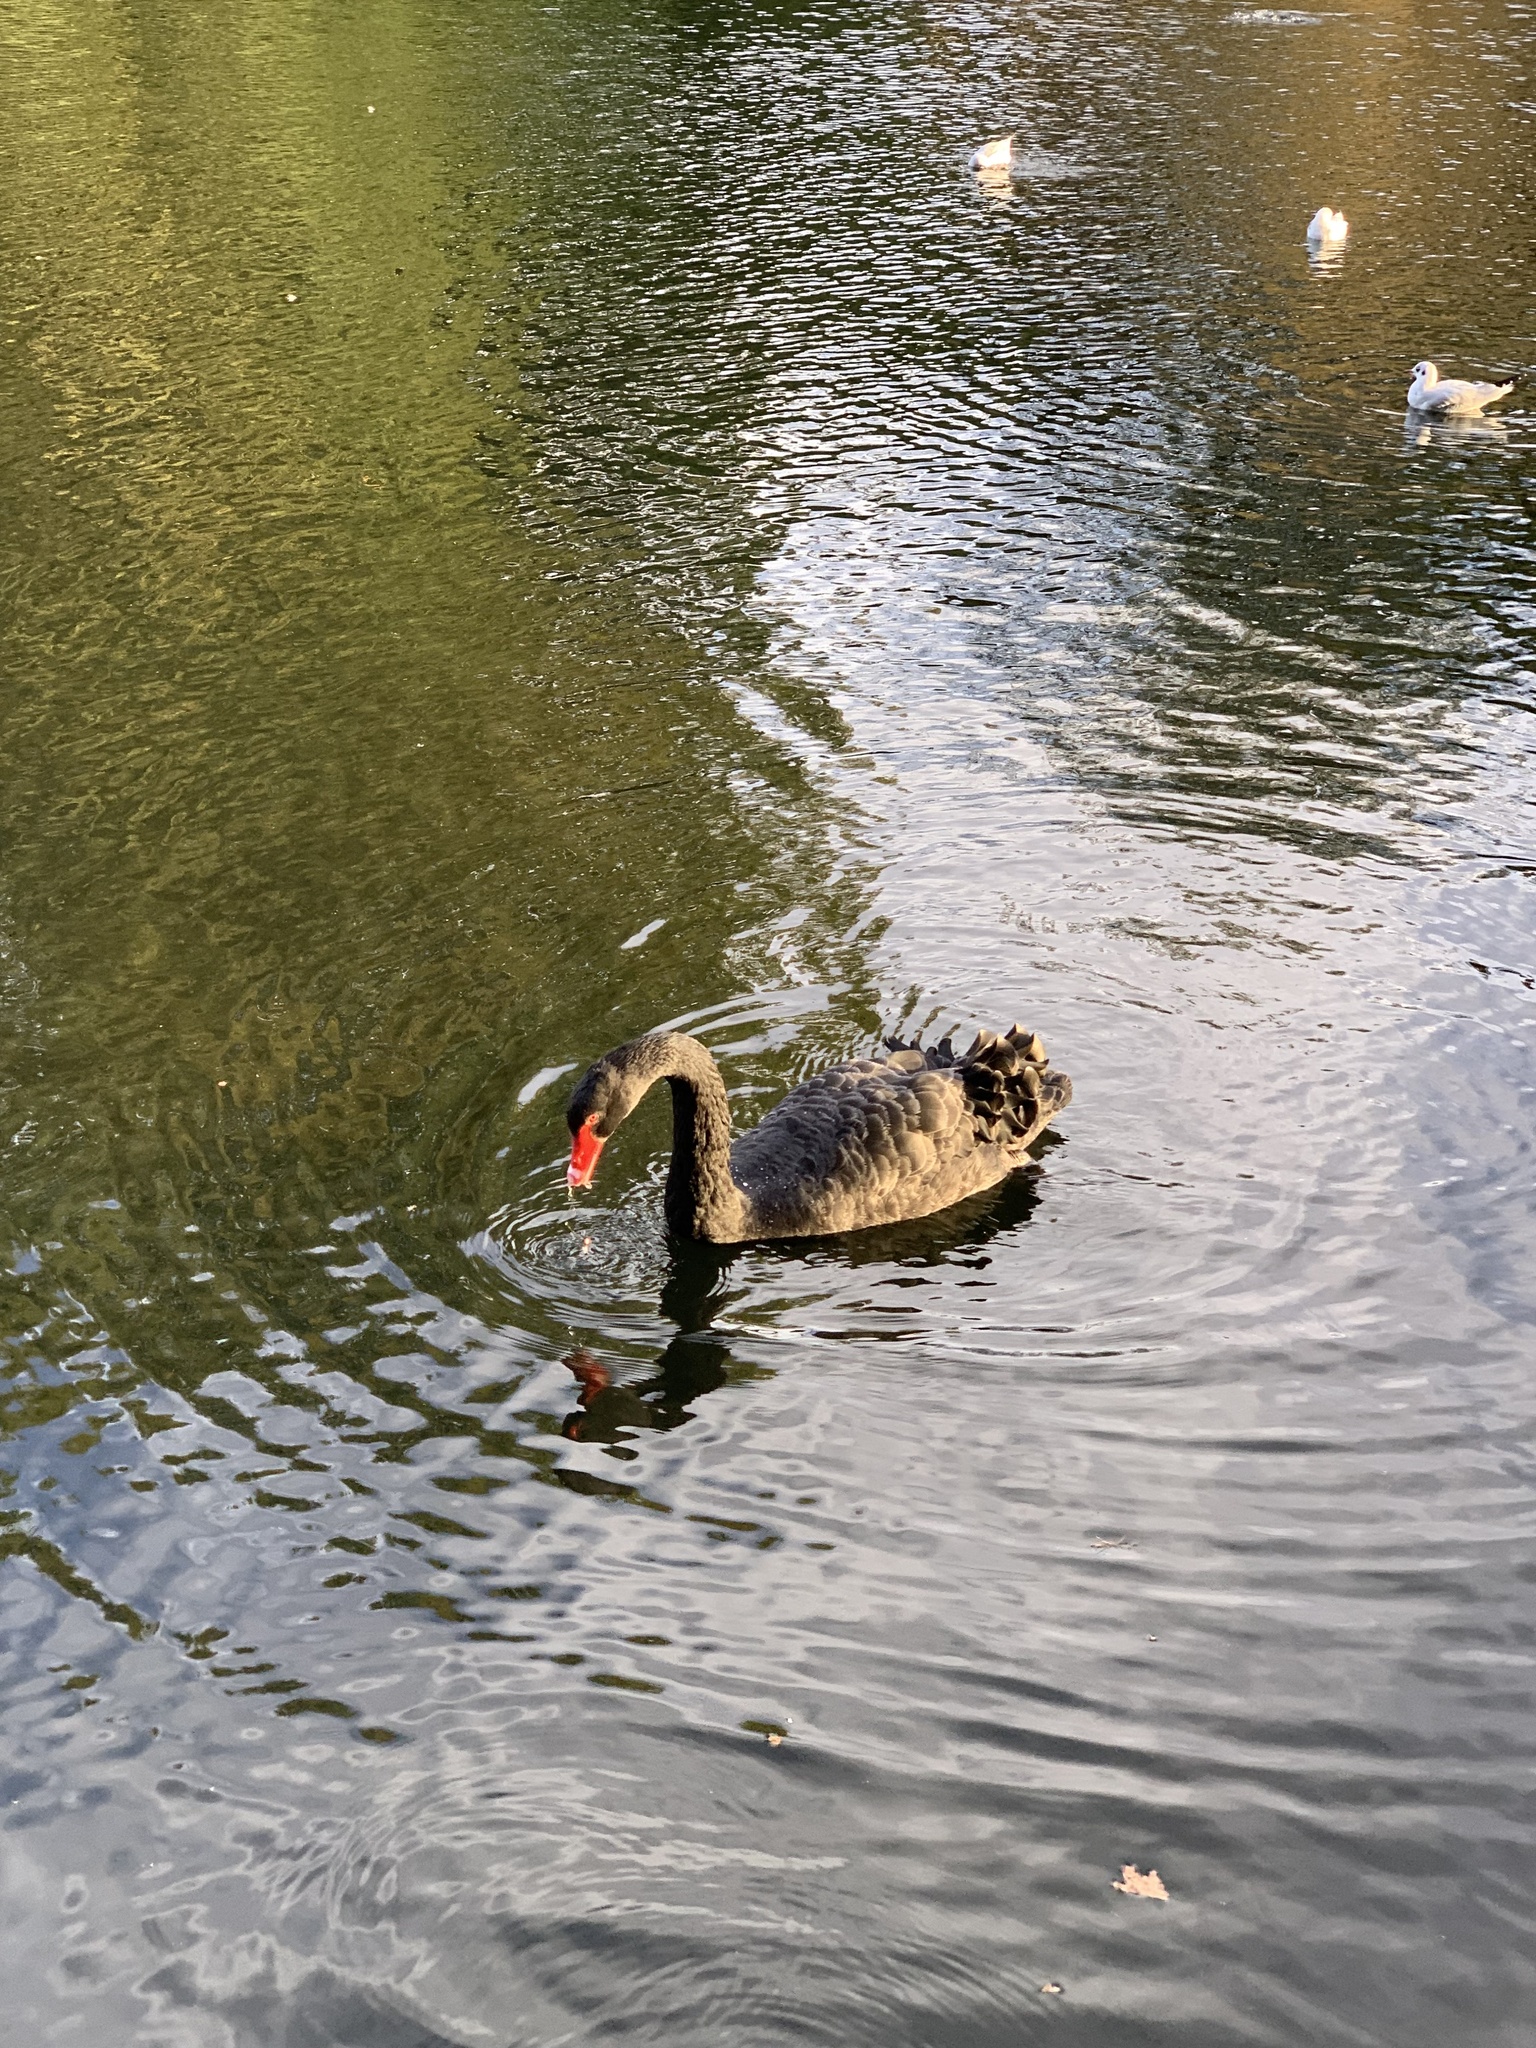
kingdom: Animalia
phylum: Chordata
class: Aves
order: Anseriformes
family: Anatidae
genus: Cygnus
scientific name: Cygnus atratus
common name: Black swan
